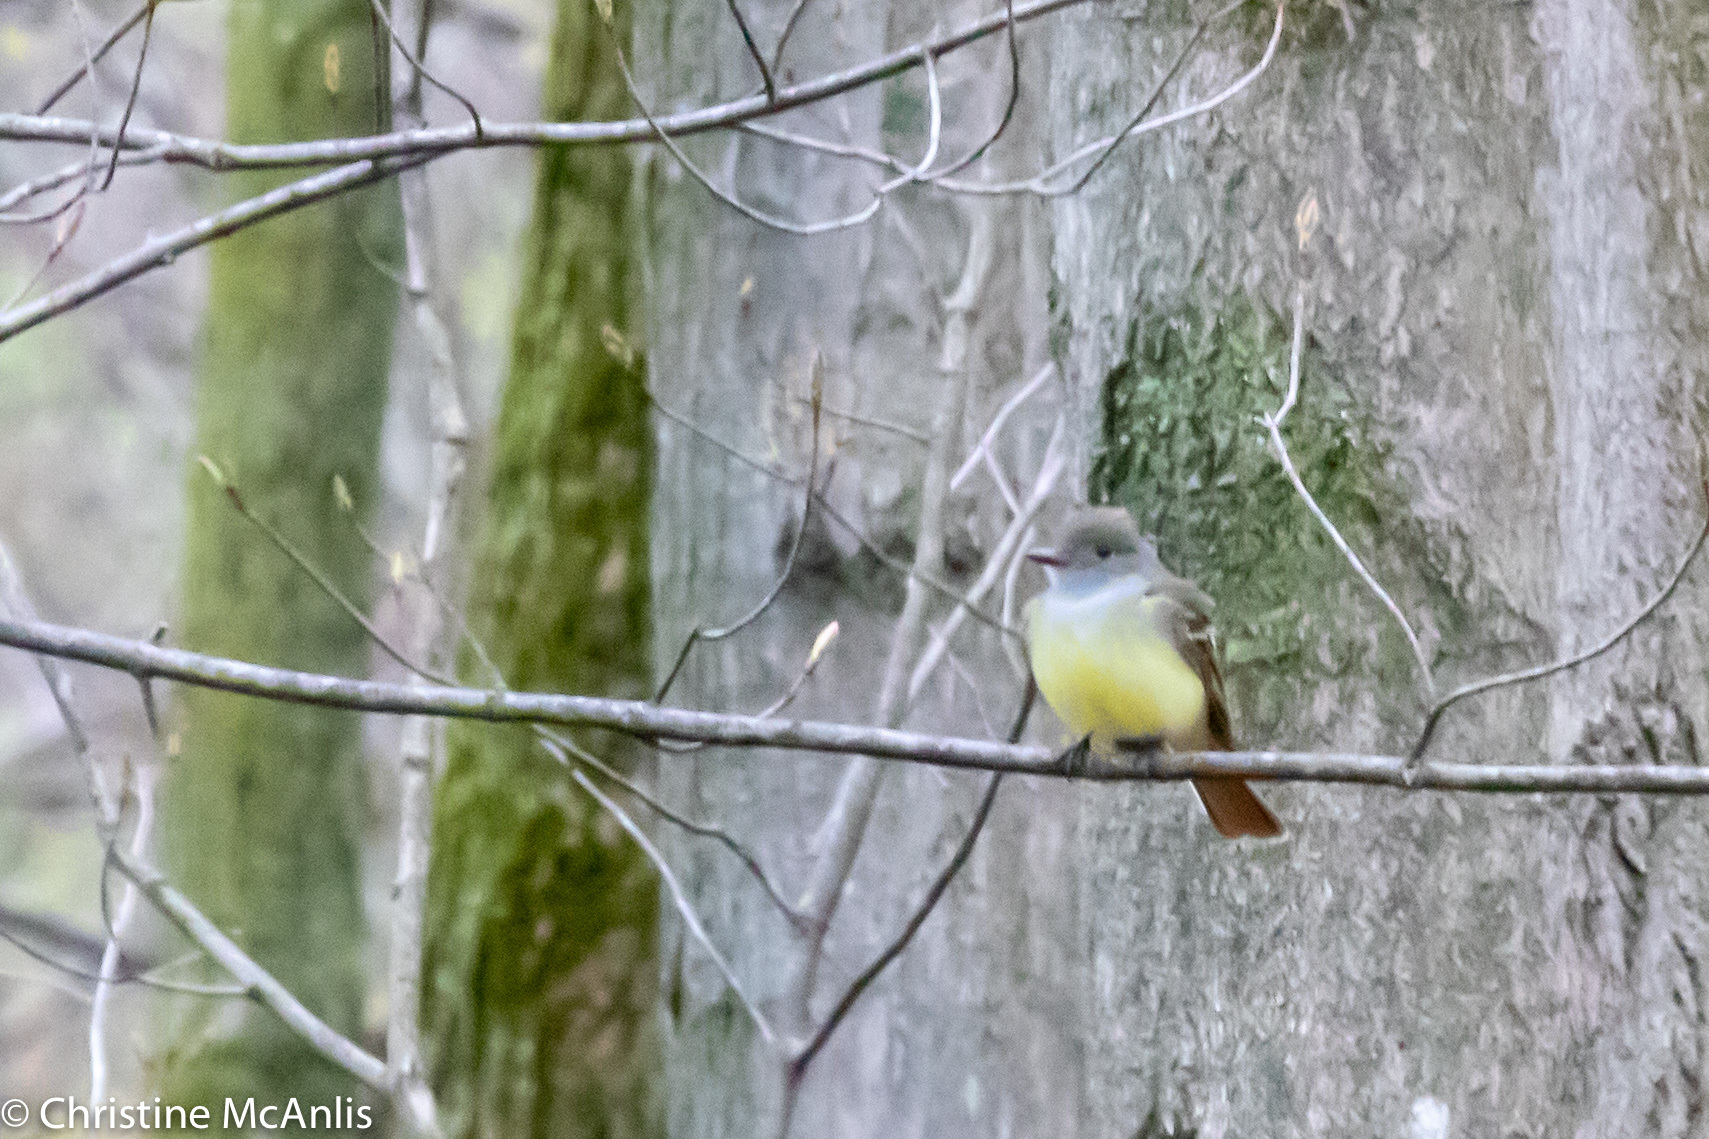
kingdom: Animalia
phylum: Chordata
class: Aves
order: Passeriformes
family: Tyrannidae
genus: Myiarchus
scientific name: Myiarchus crinitus
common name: Great crested flycatcher
